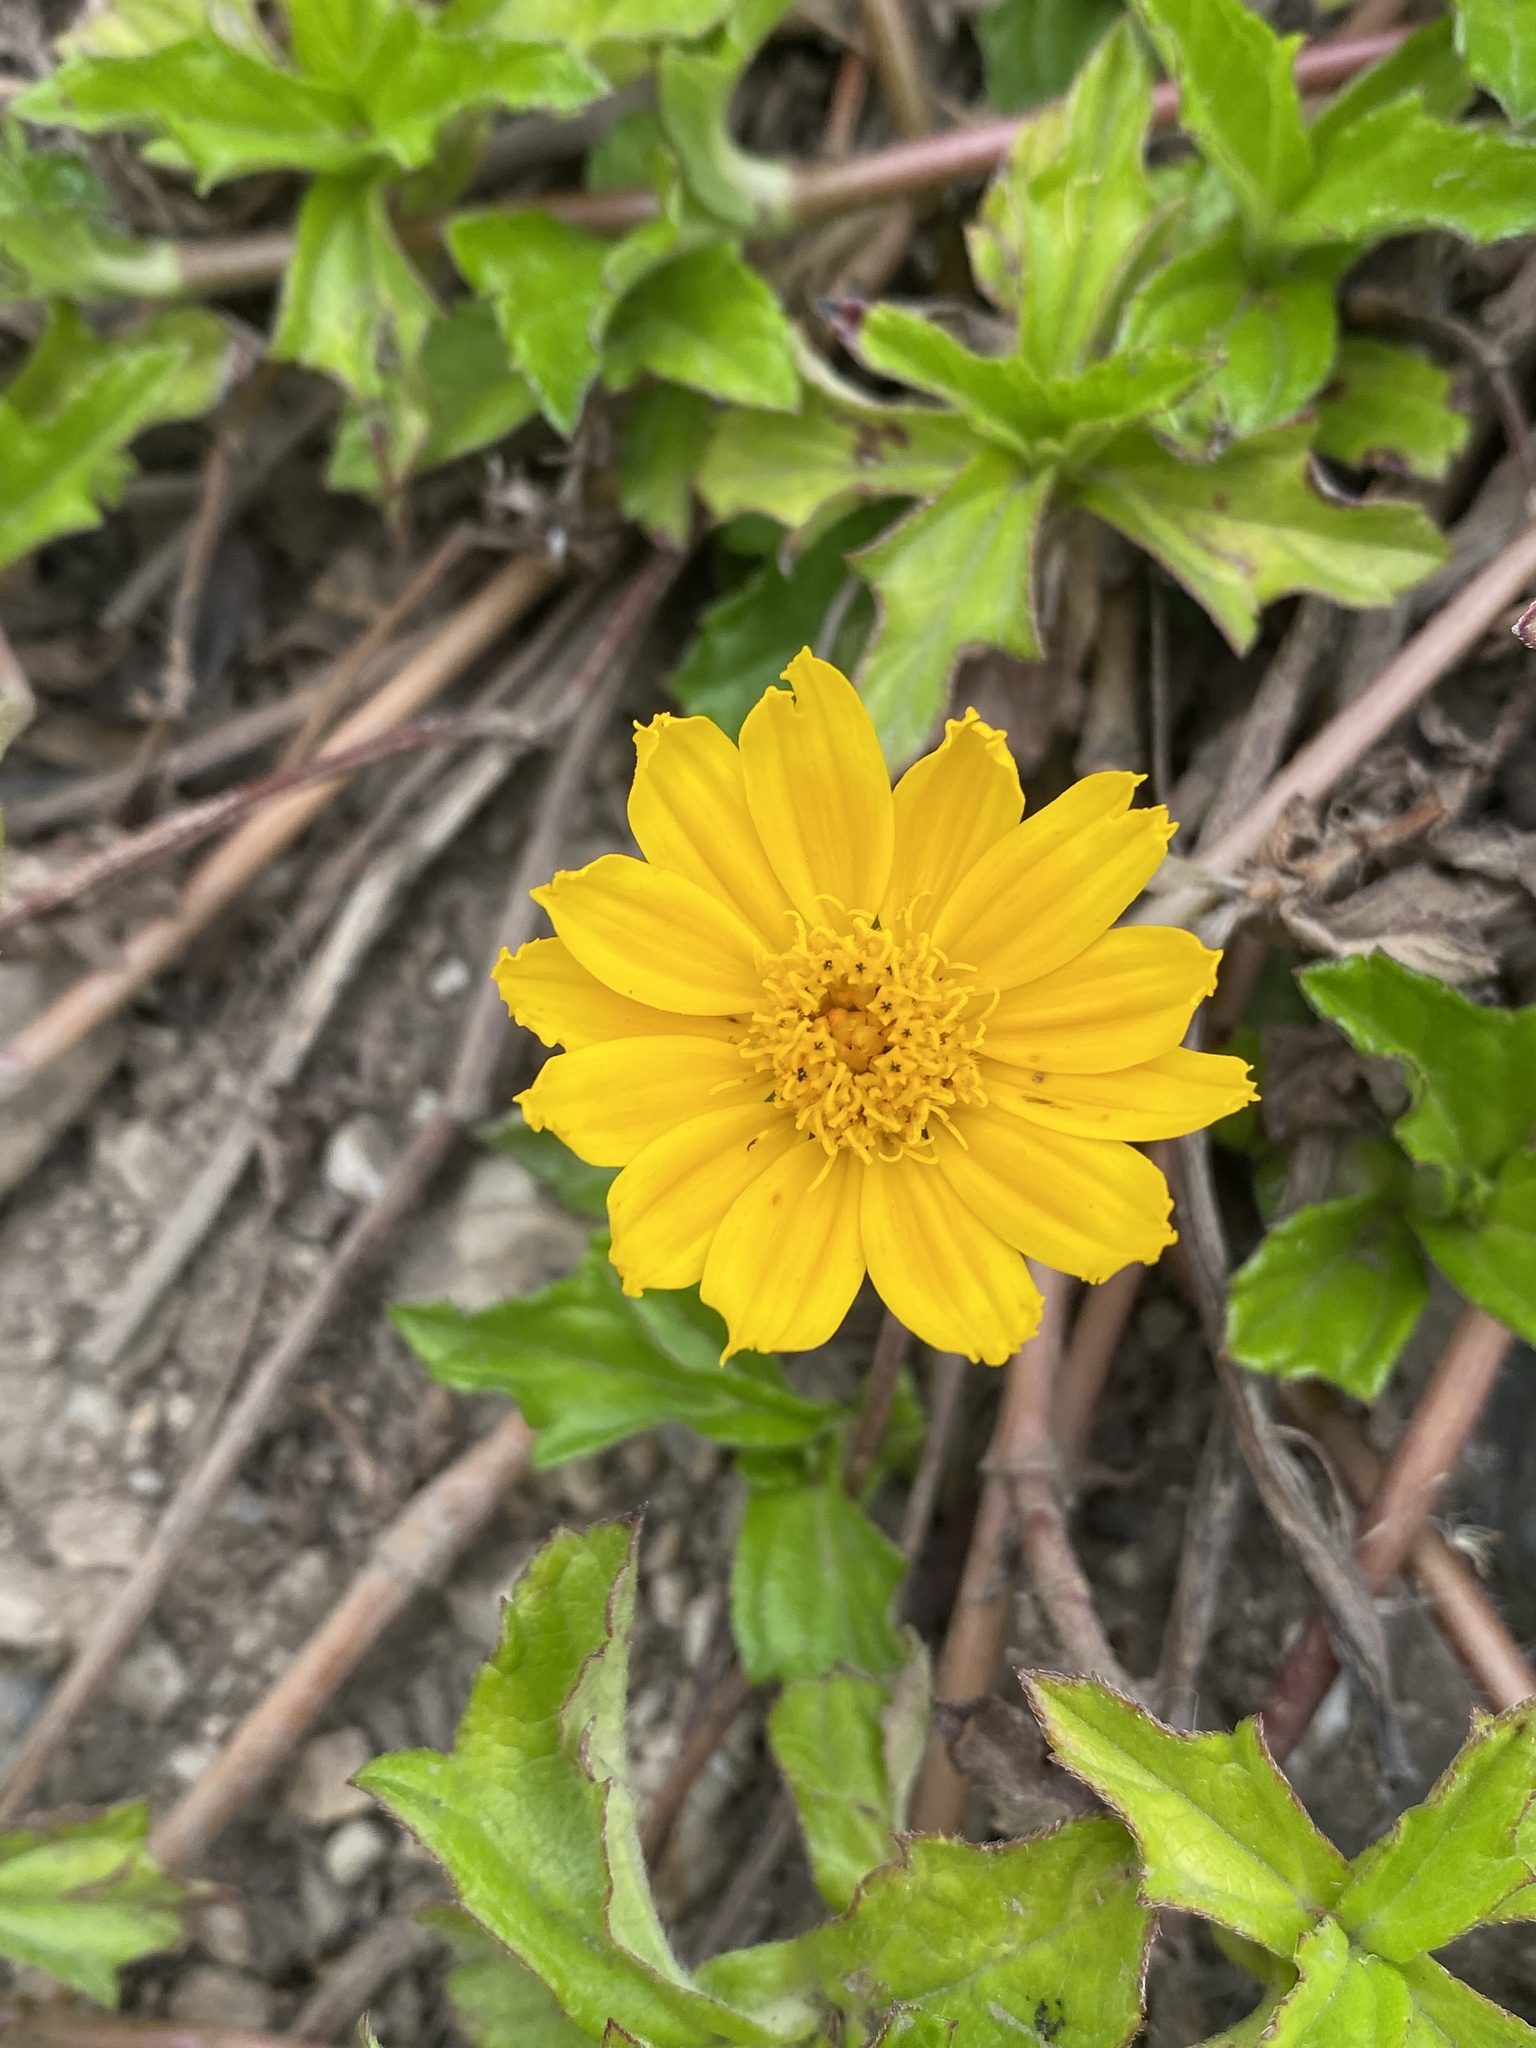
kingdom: Plantae
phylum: Tracheophyta
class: Magnoliopsida
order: Asterales
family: Asteraceae
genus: Sphagneticola
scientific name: Sphagneticola trilobata
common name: Bay biscayne creeping-oxeye
